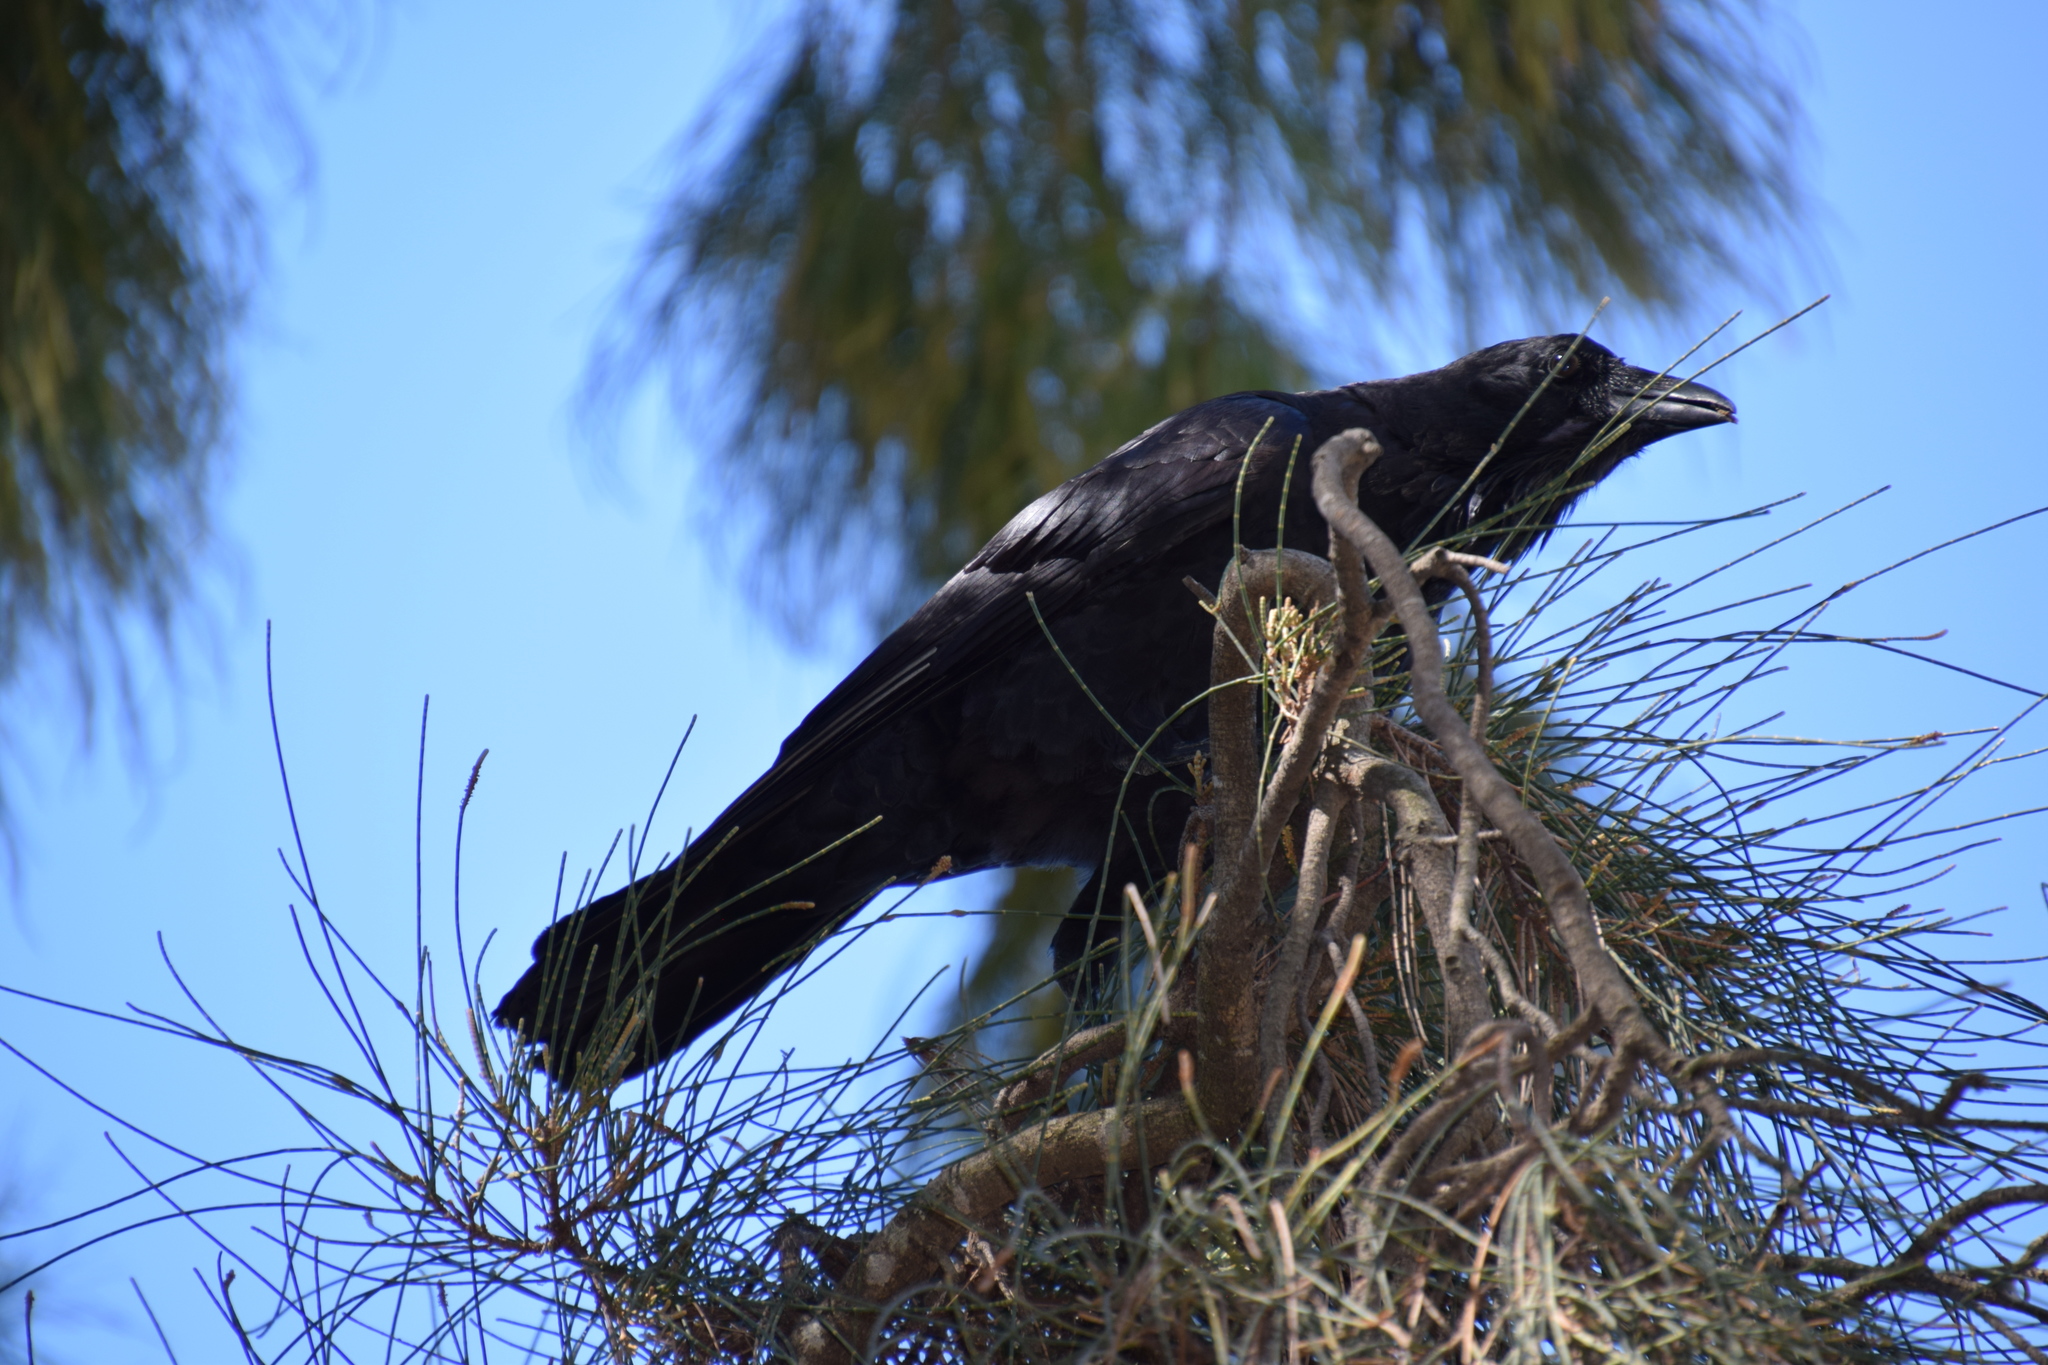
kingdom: Animalia
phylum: Chordata
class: Aves
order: Passeriformes
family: Corvidae
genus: Corvus
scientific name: Corvus coronoides
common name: Australian raven
